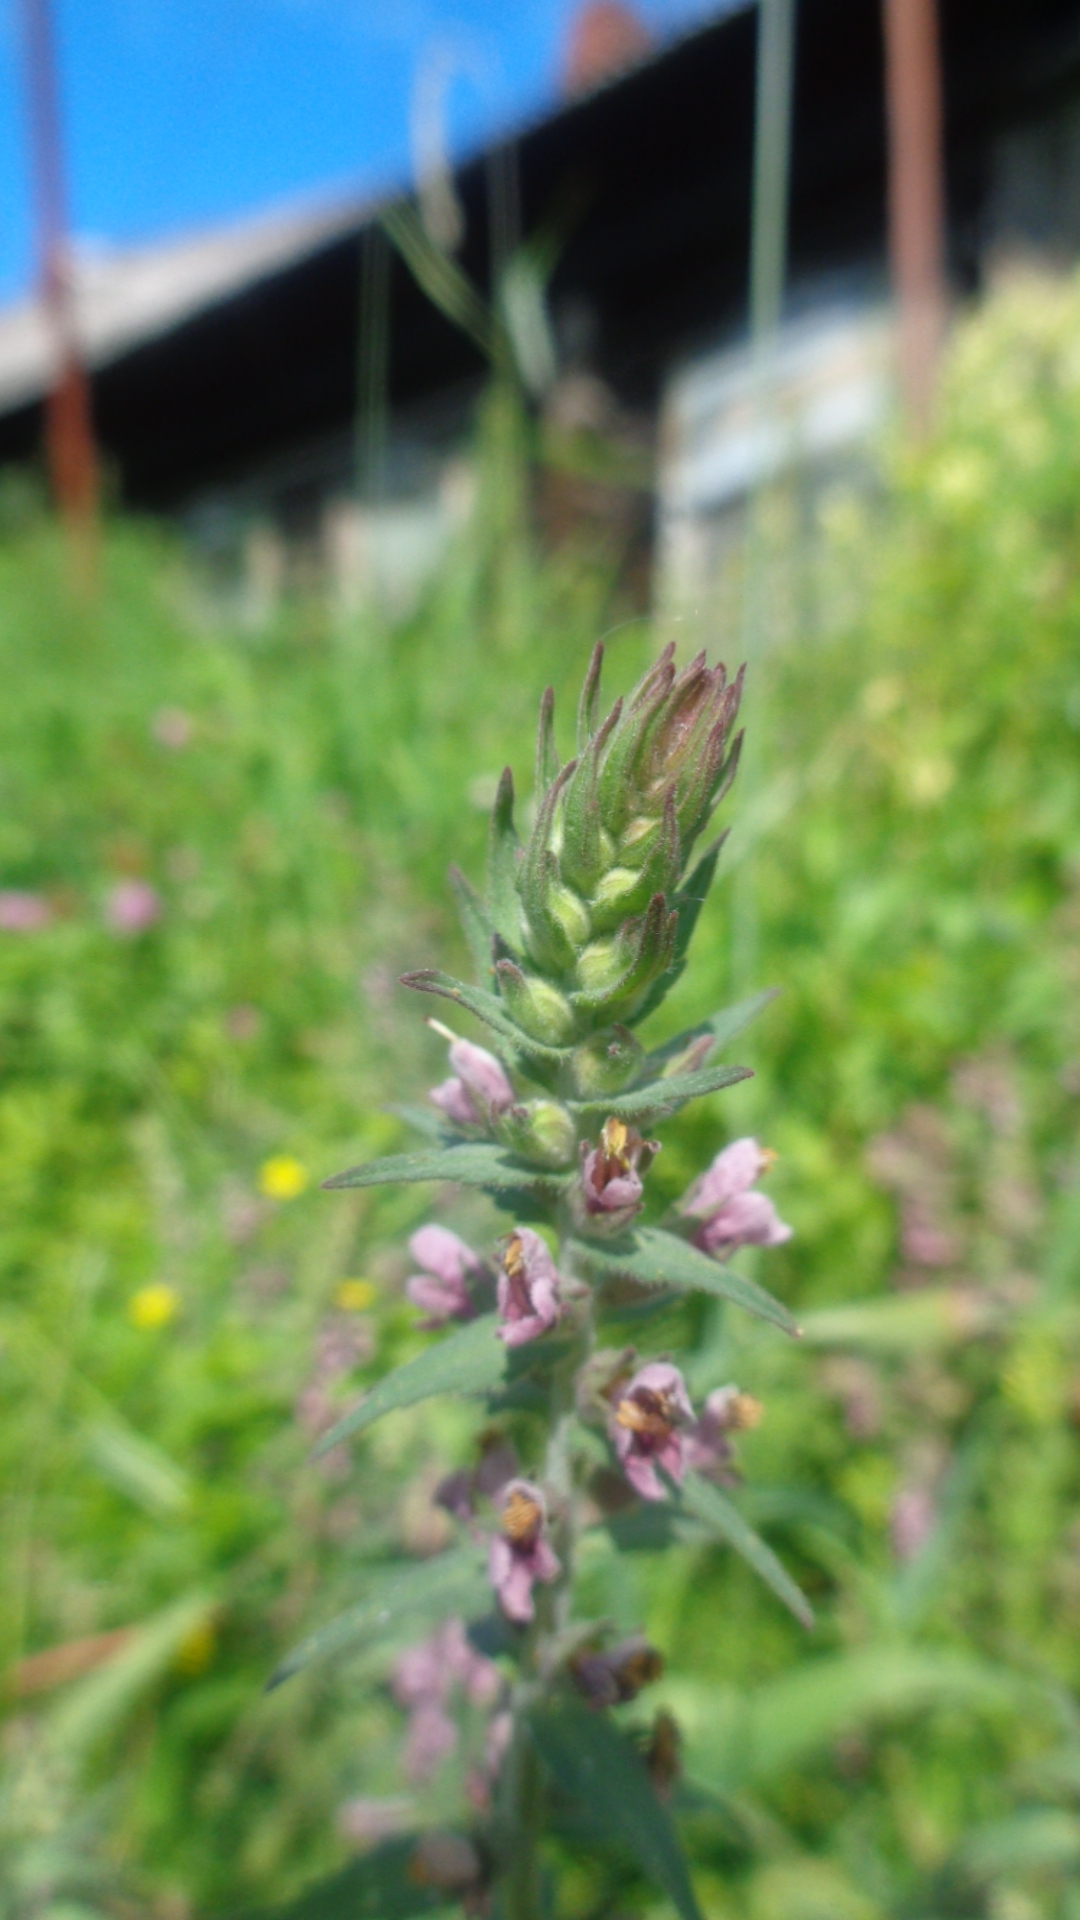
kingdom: Plantae
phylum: Tracheophyta
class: Magnoliopsida
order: Lamiales
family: Orobanchaceae
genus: Odontites
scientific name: Odontites vulgaris
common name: Broomrape
